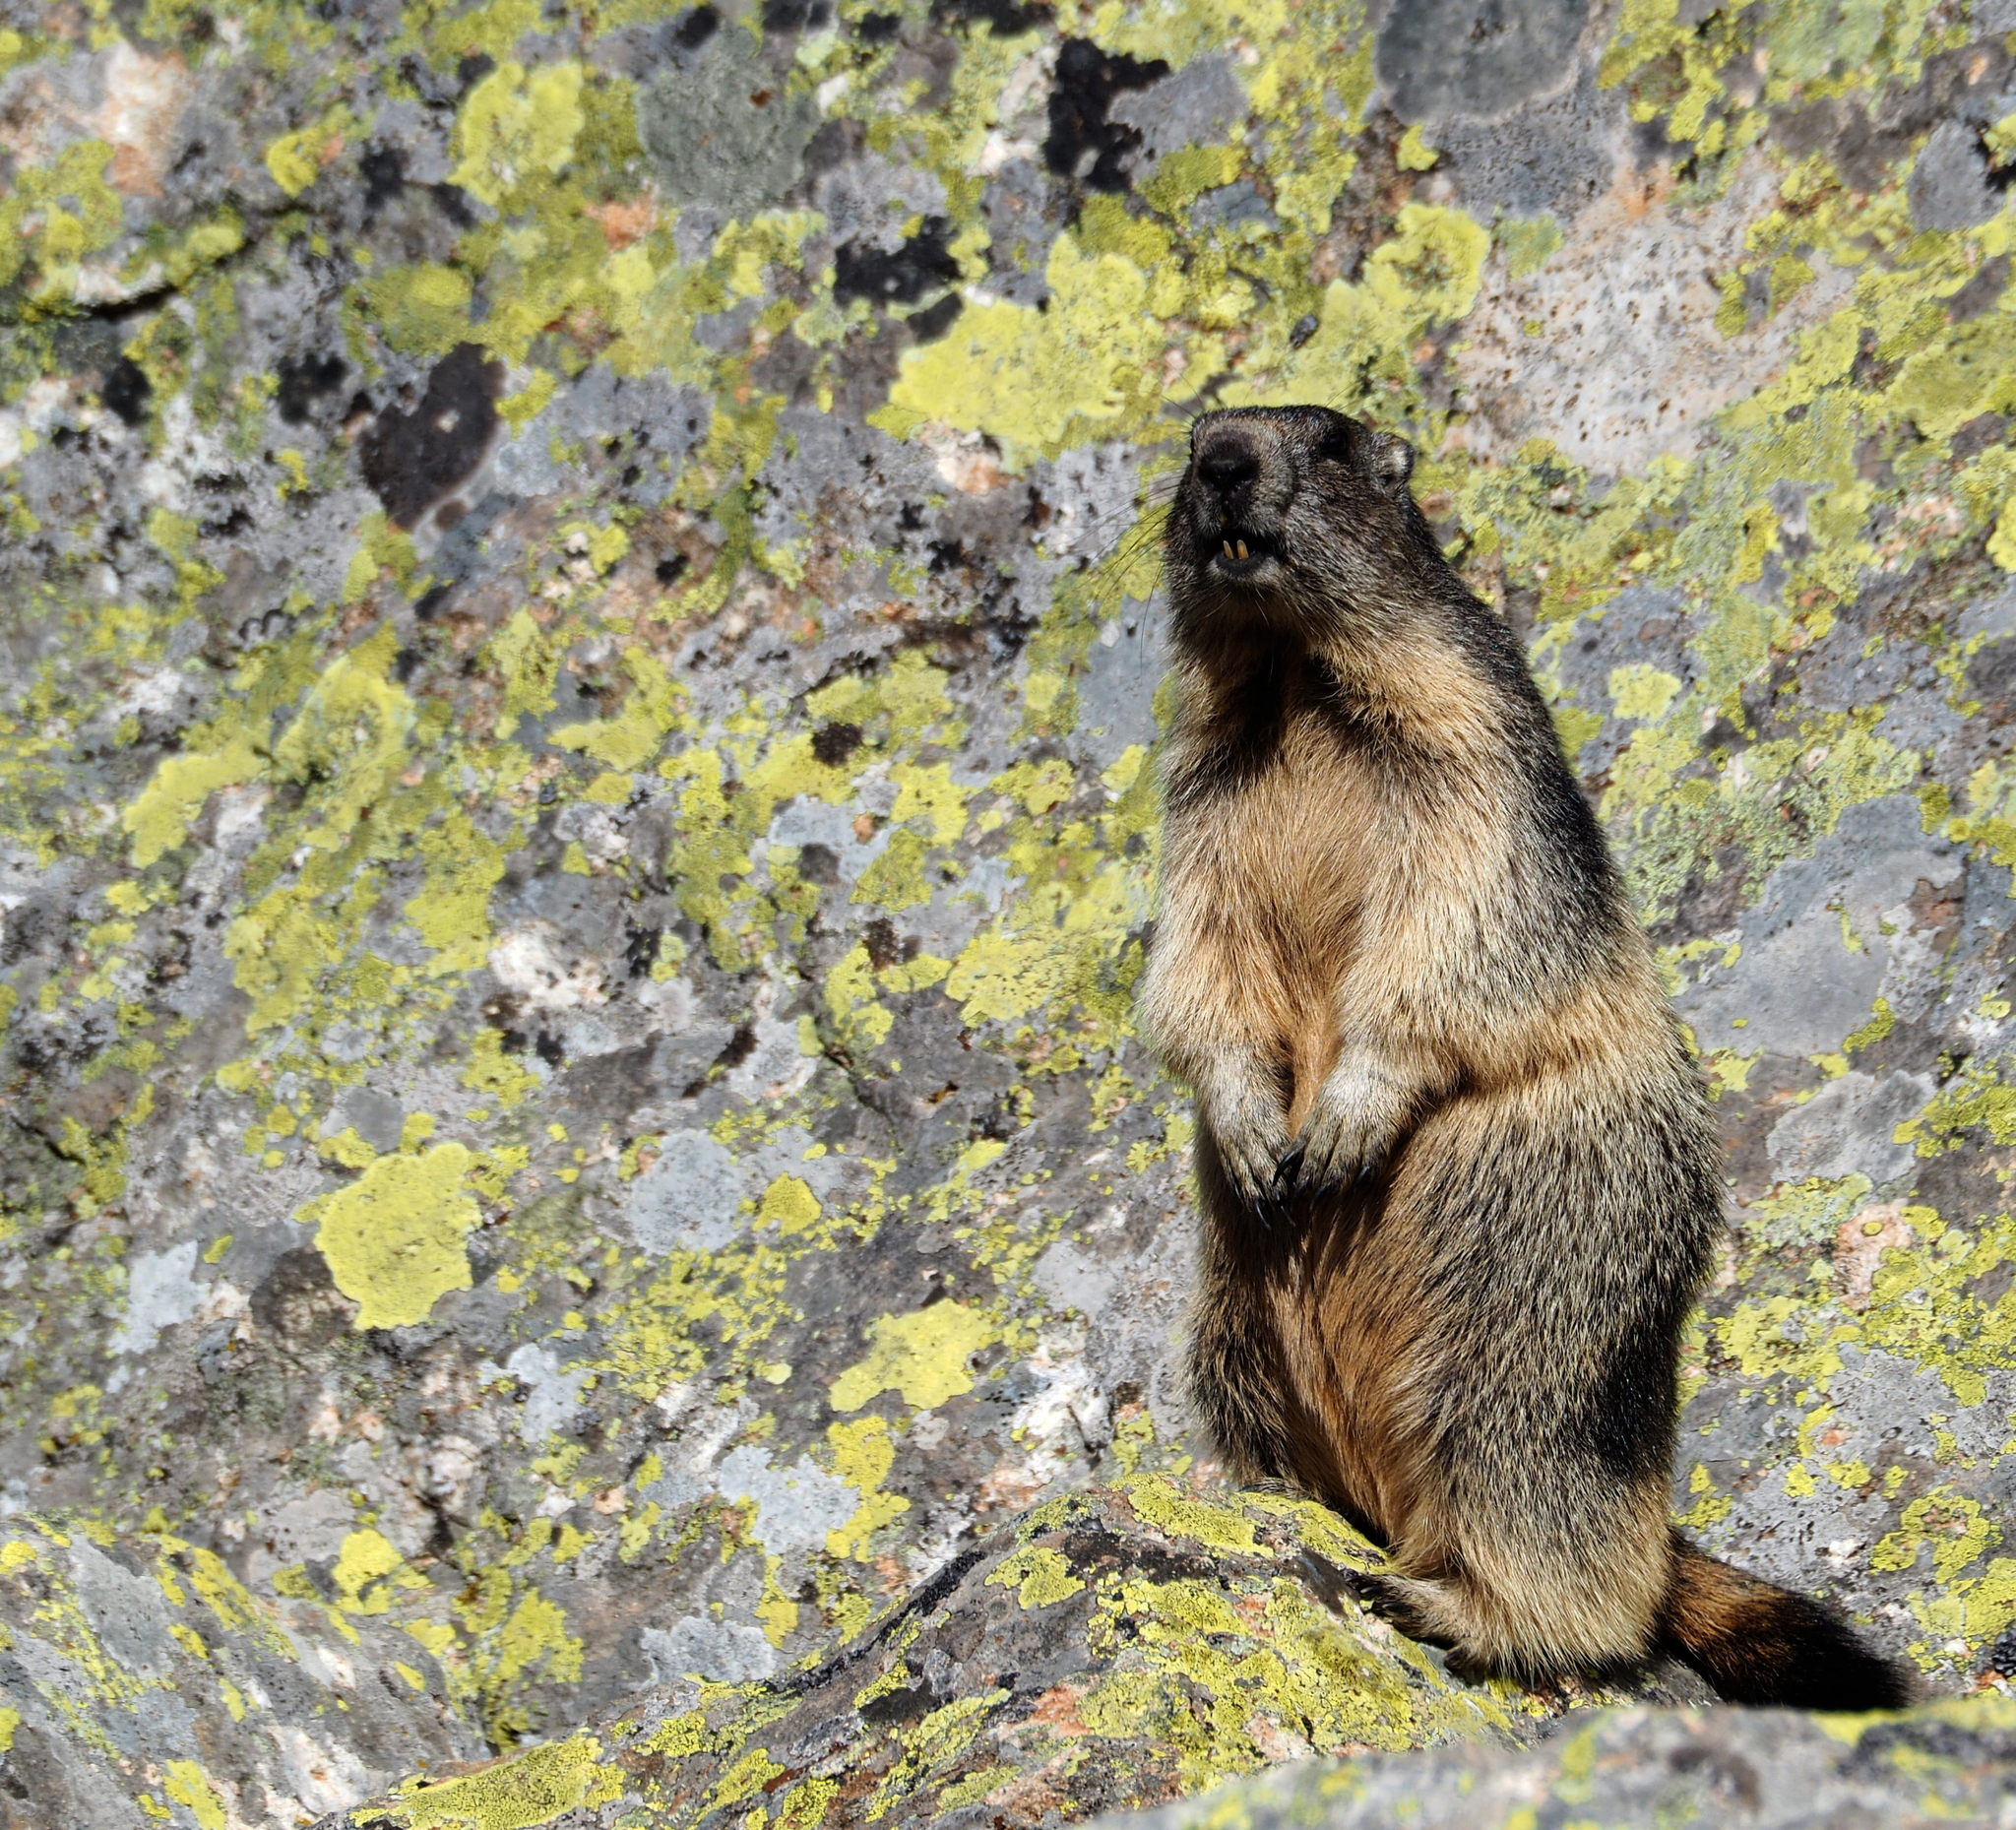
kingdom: Animalia
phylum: Chordata
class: Mammalia
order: Rodentia
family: Sciuridae
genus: Marmota
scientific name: Marmota marmota
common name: Alpine marmot
